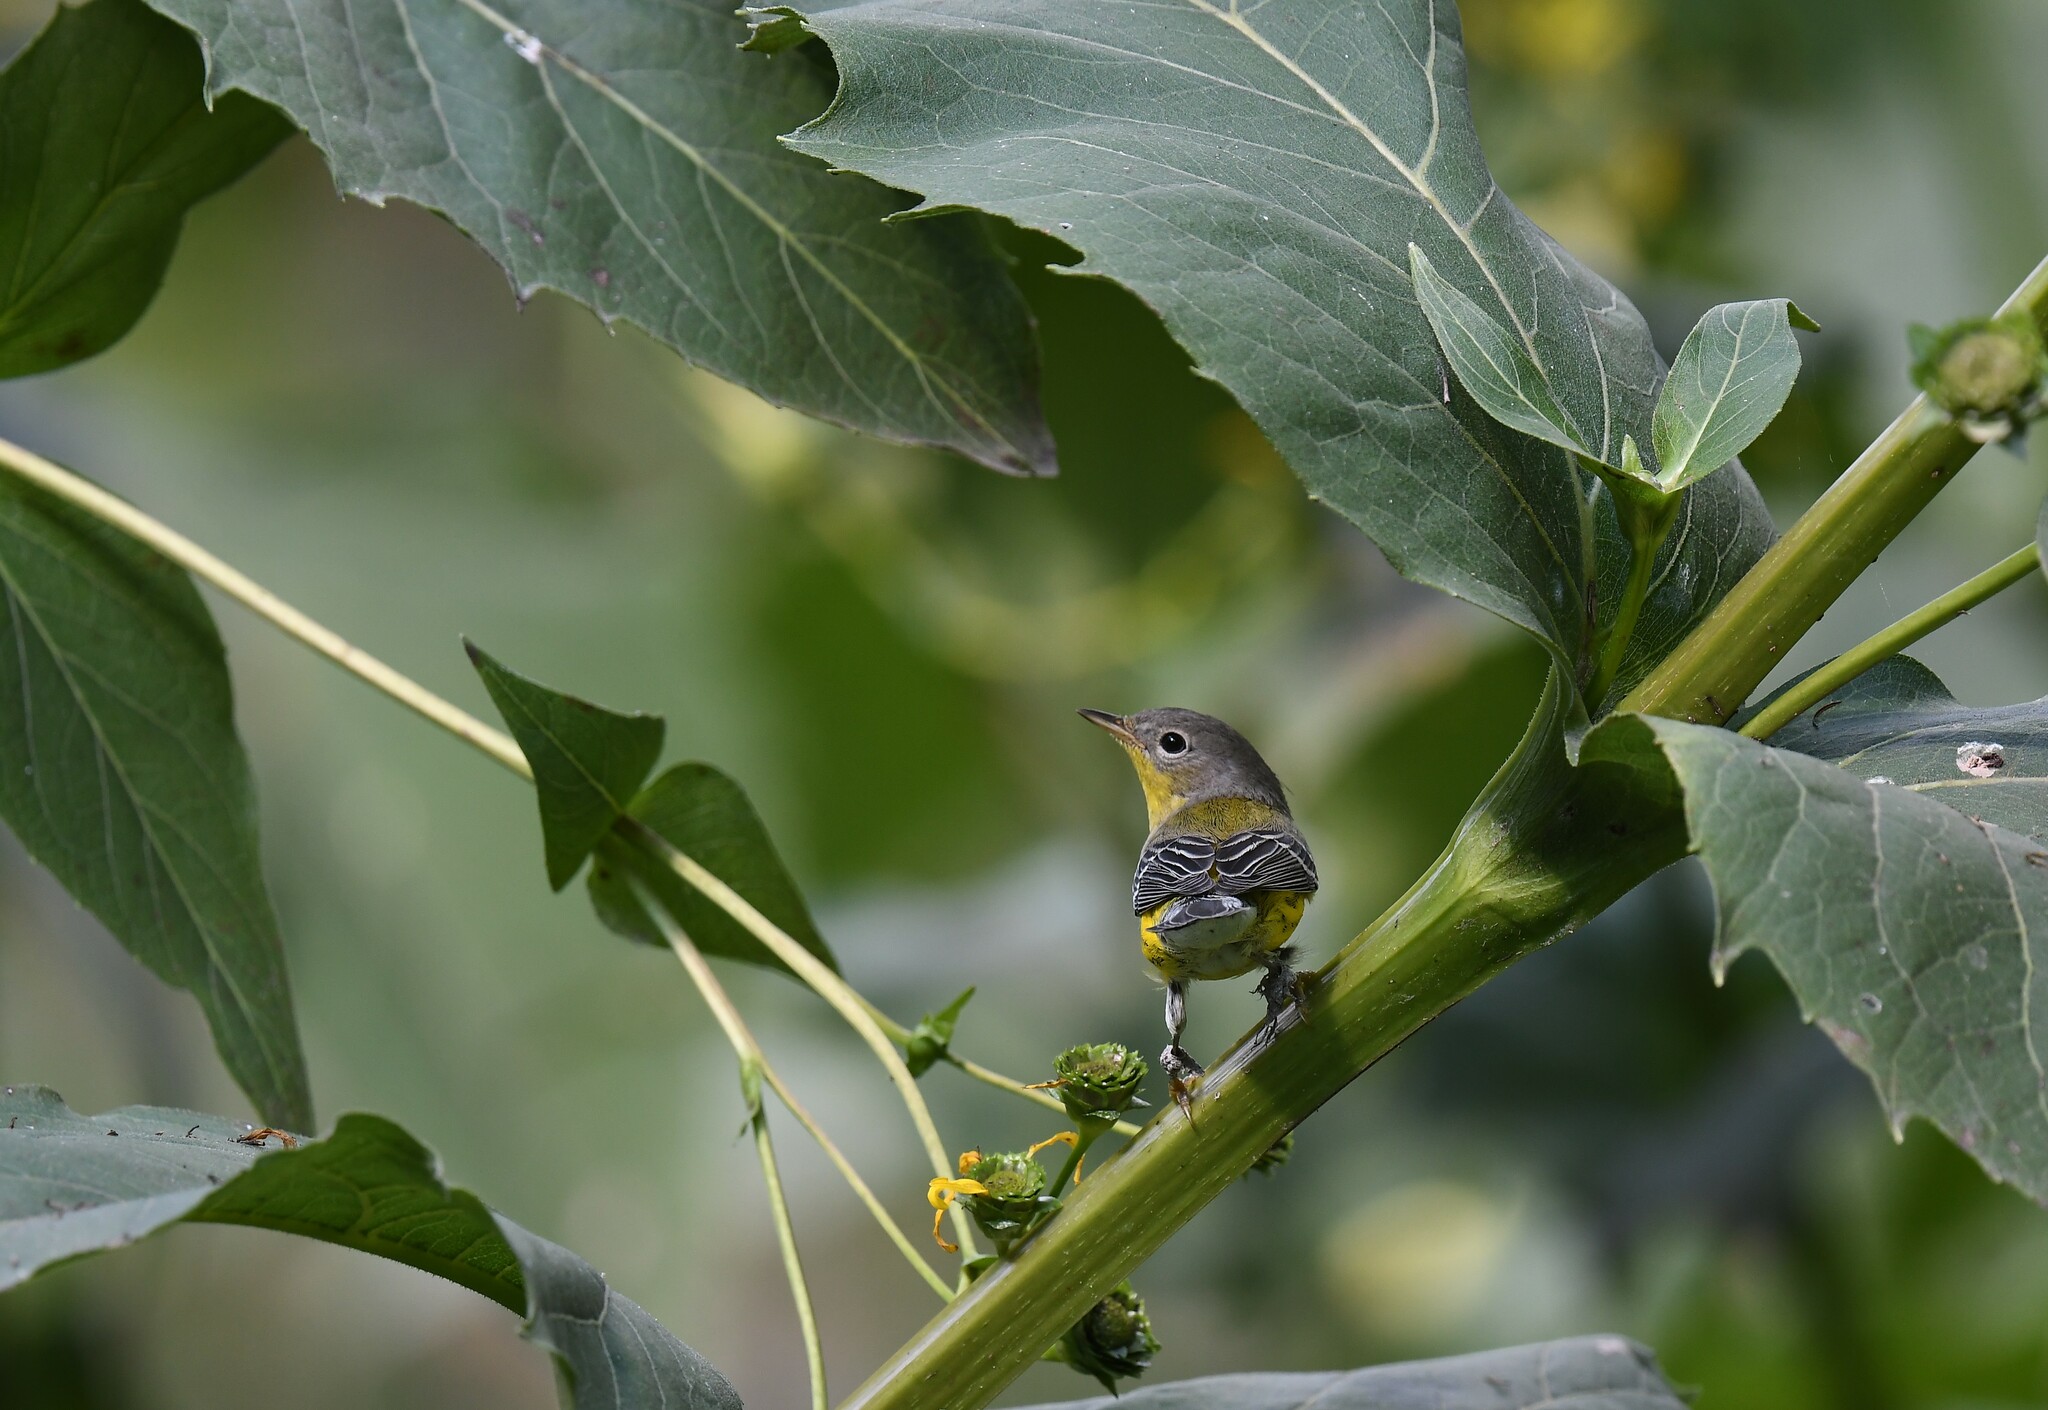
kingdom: Animalia
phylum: Chordata
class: Aves
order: Passeriformes
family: Parulidae
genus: Setophaga
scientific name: Setophaga magnolia
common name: Magnolia warbler
